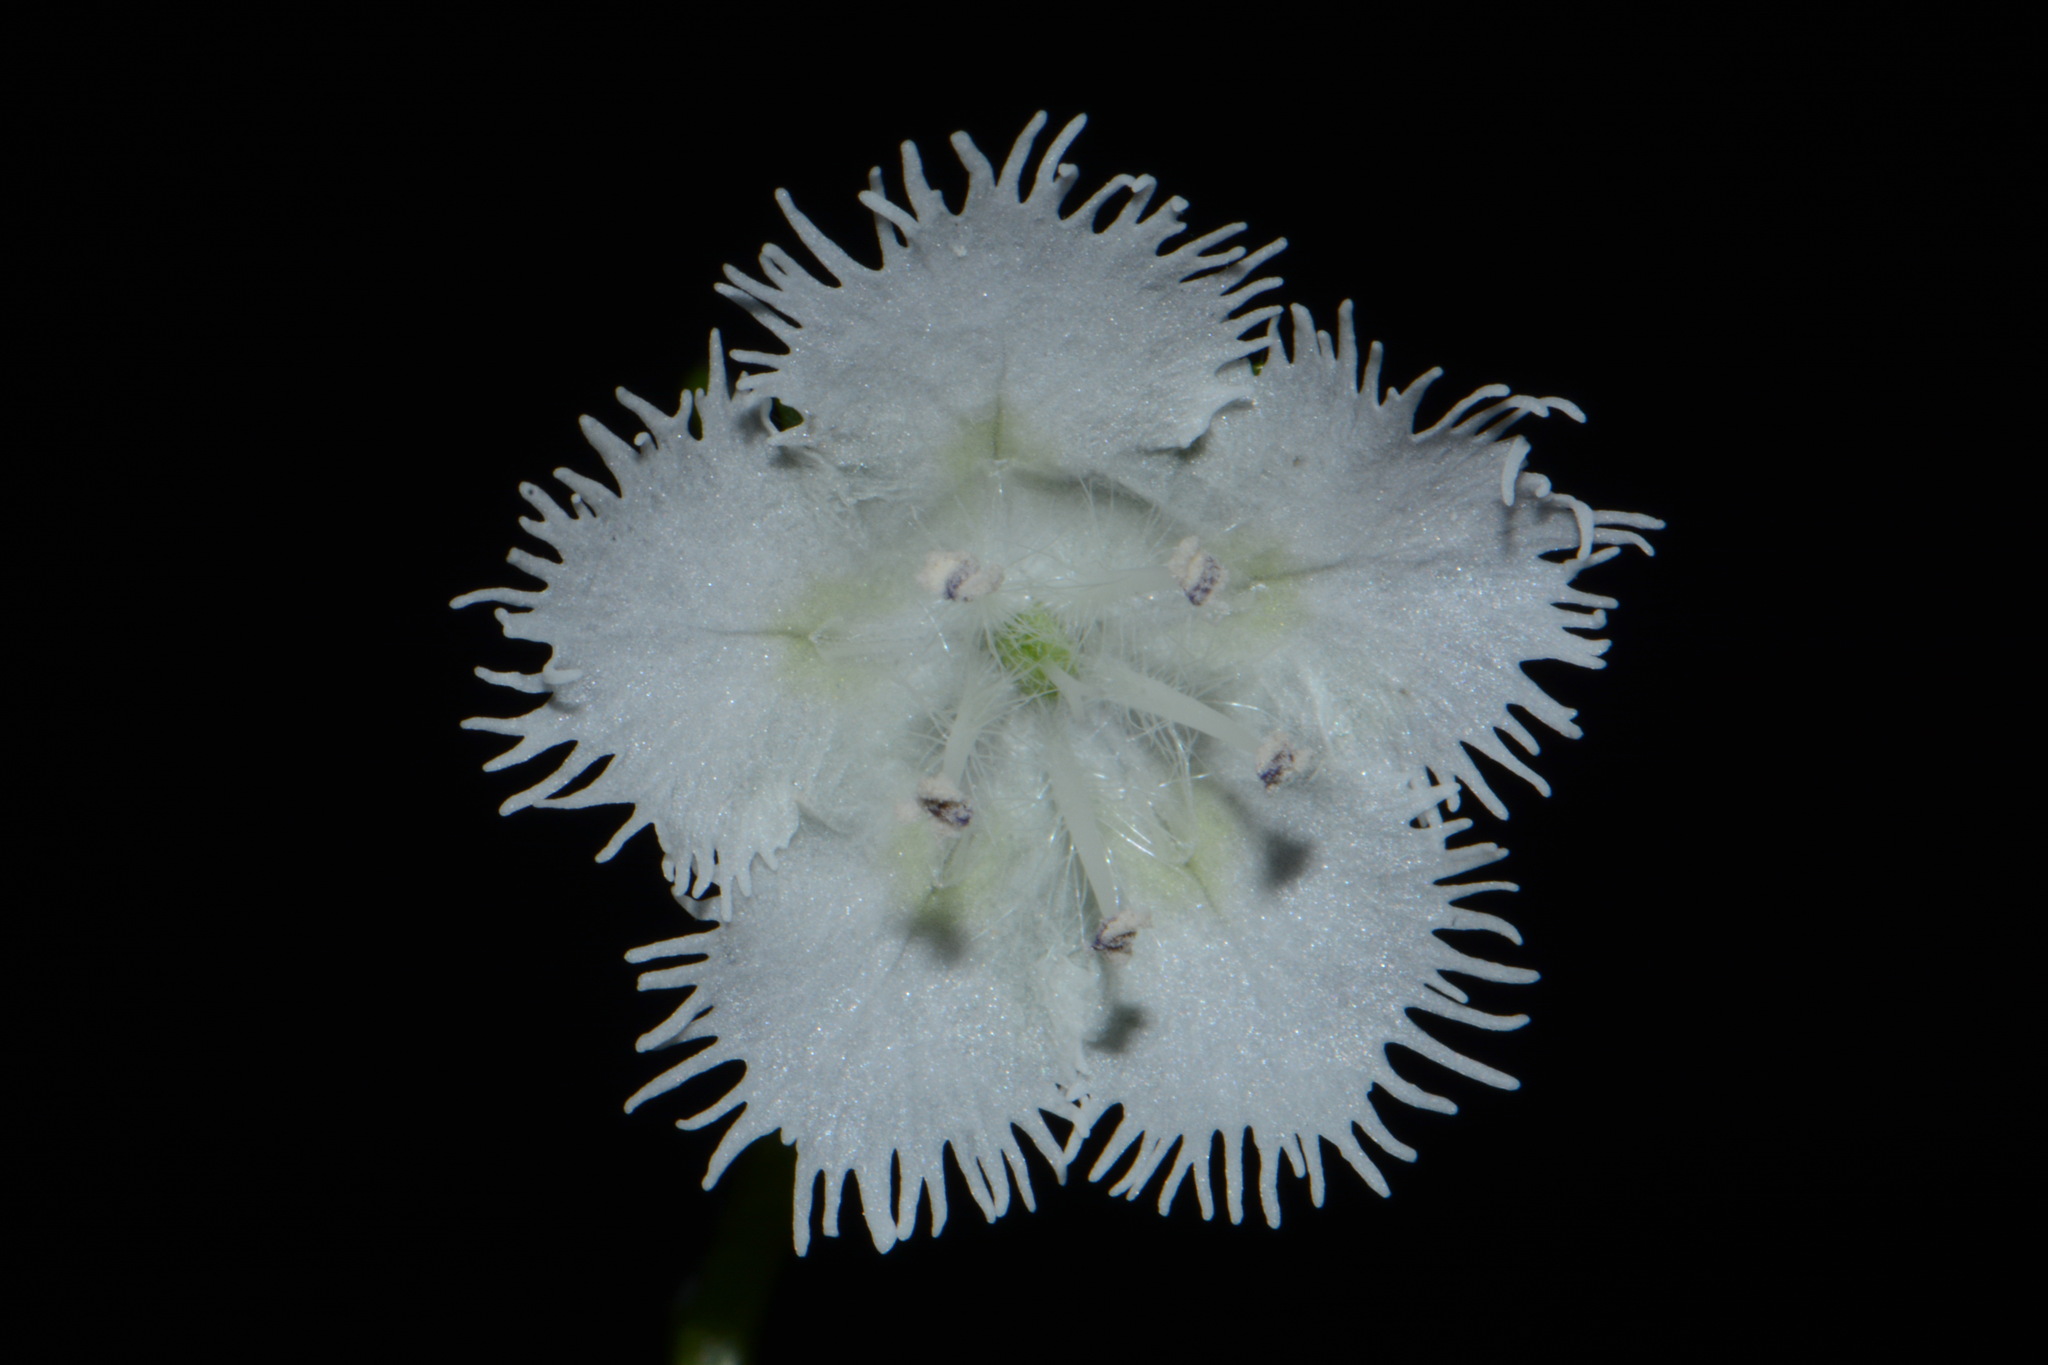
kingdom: Plantae
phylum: Tracheophyta
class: Magnoliopsida
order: Boraginales
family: Hydrophyllaceae
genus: Phacelia
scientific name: Phacelia fimbriata
